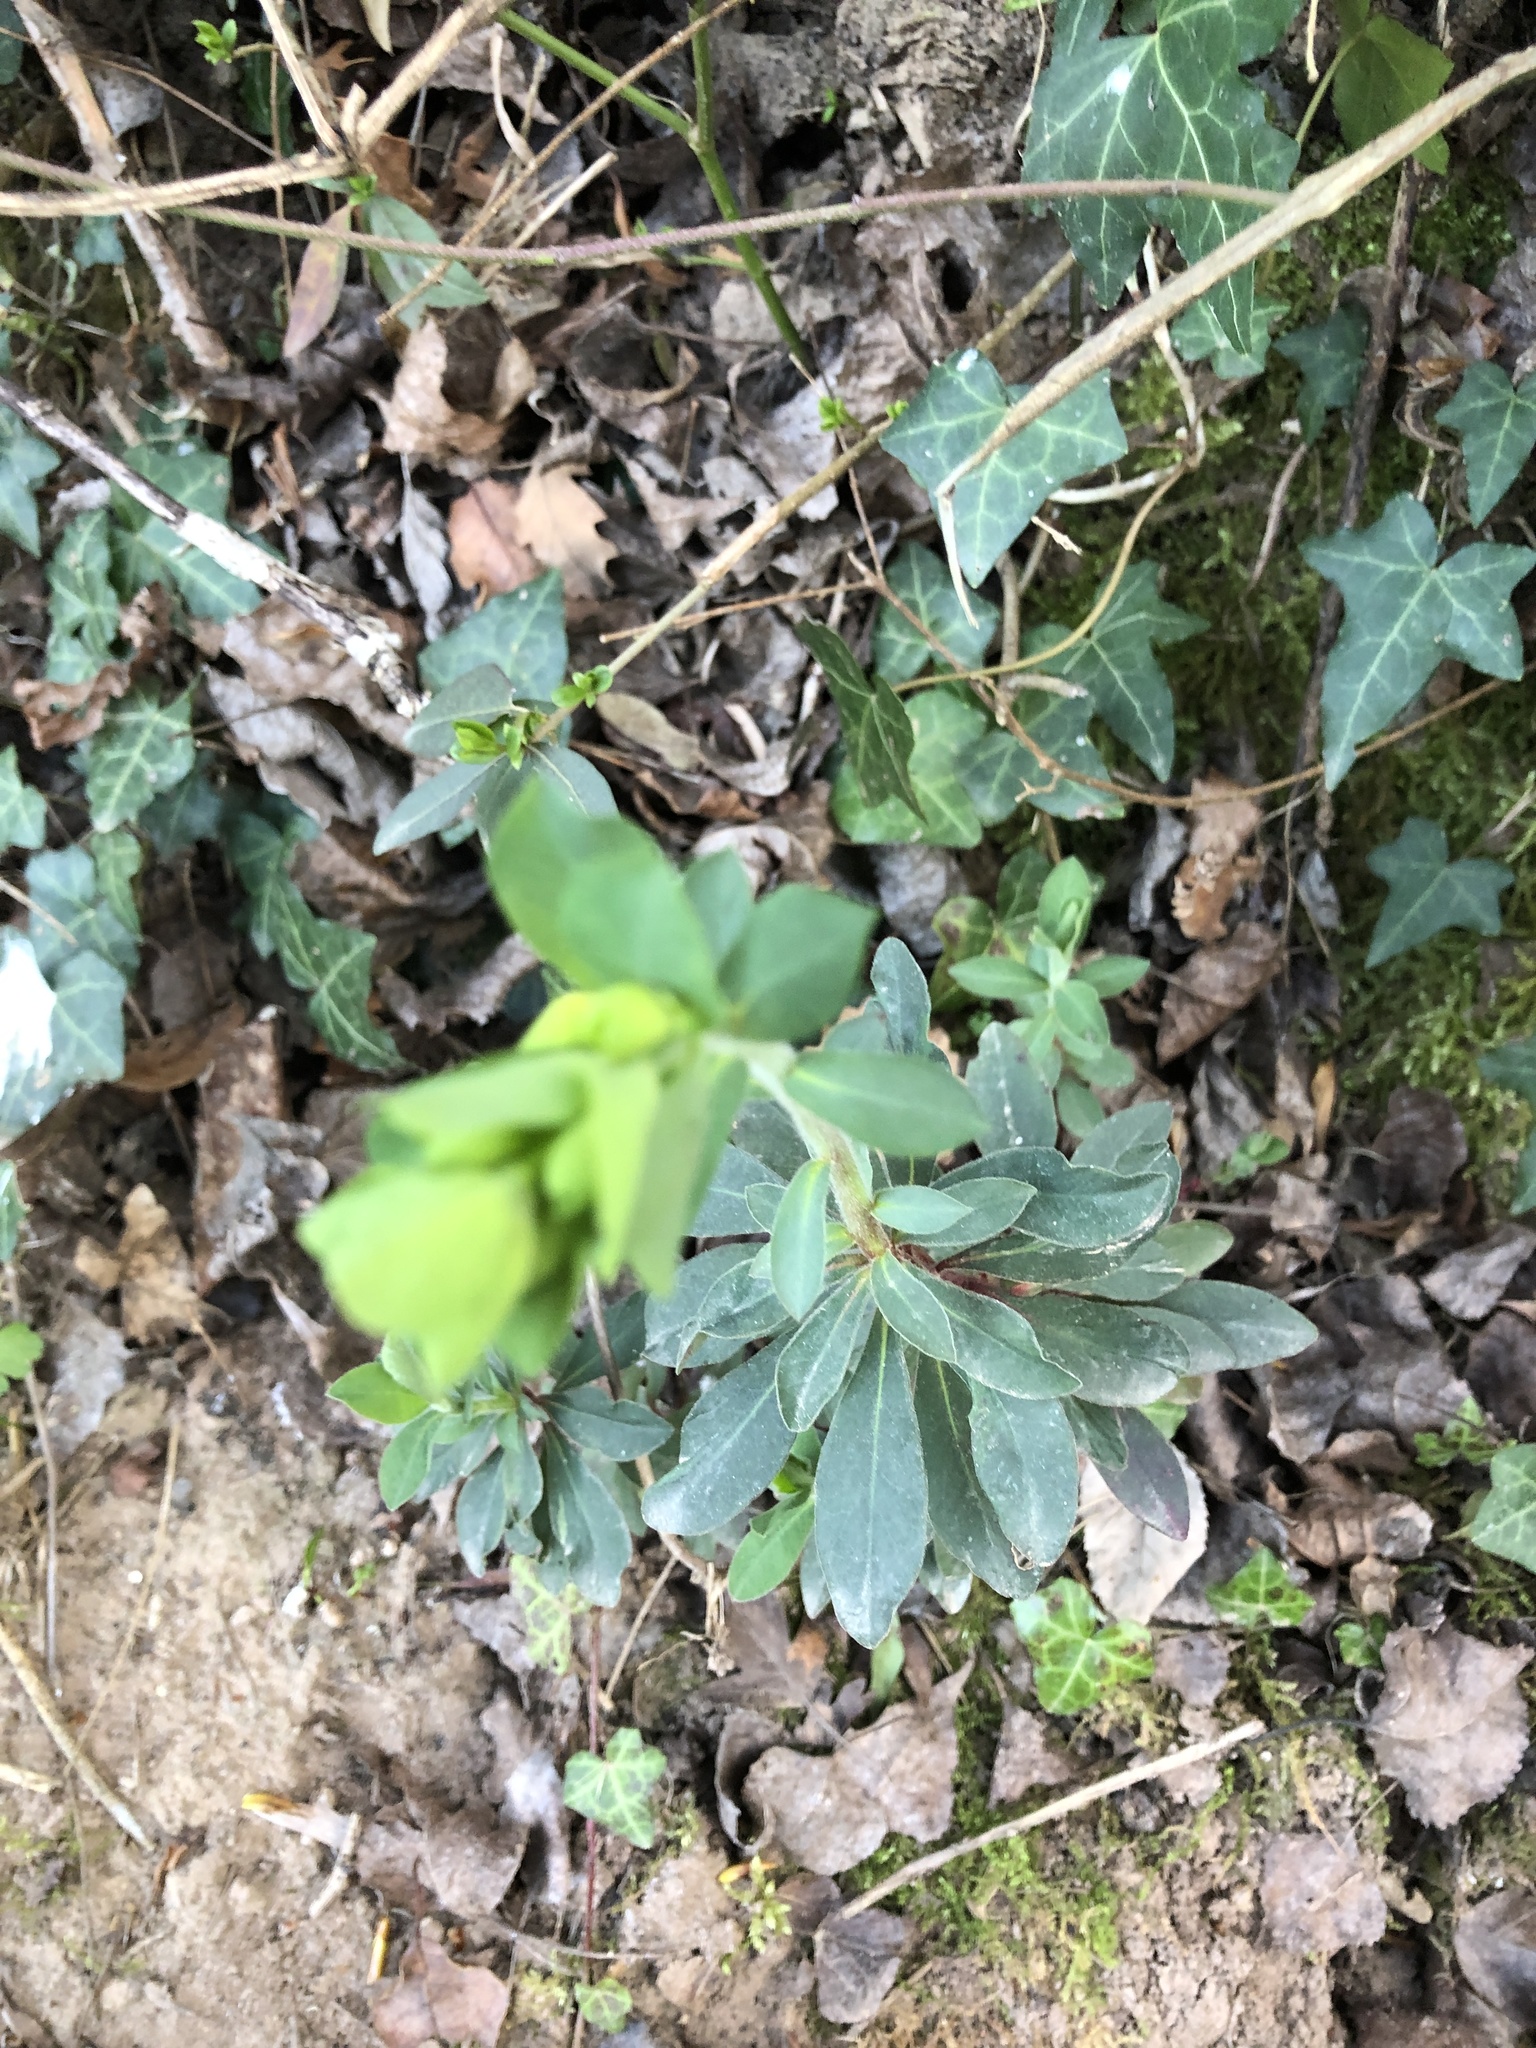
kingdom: Plantae
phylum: Tracheophyta
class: Magnoliopsida
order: Malpighiales
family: Euphorbiaceae
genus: Euphorbia
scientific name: Euphorbia amygdaloides
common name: Wood spurge
